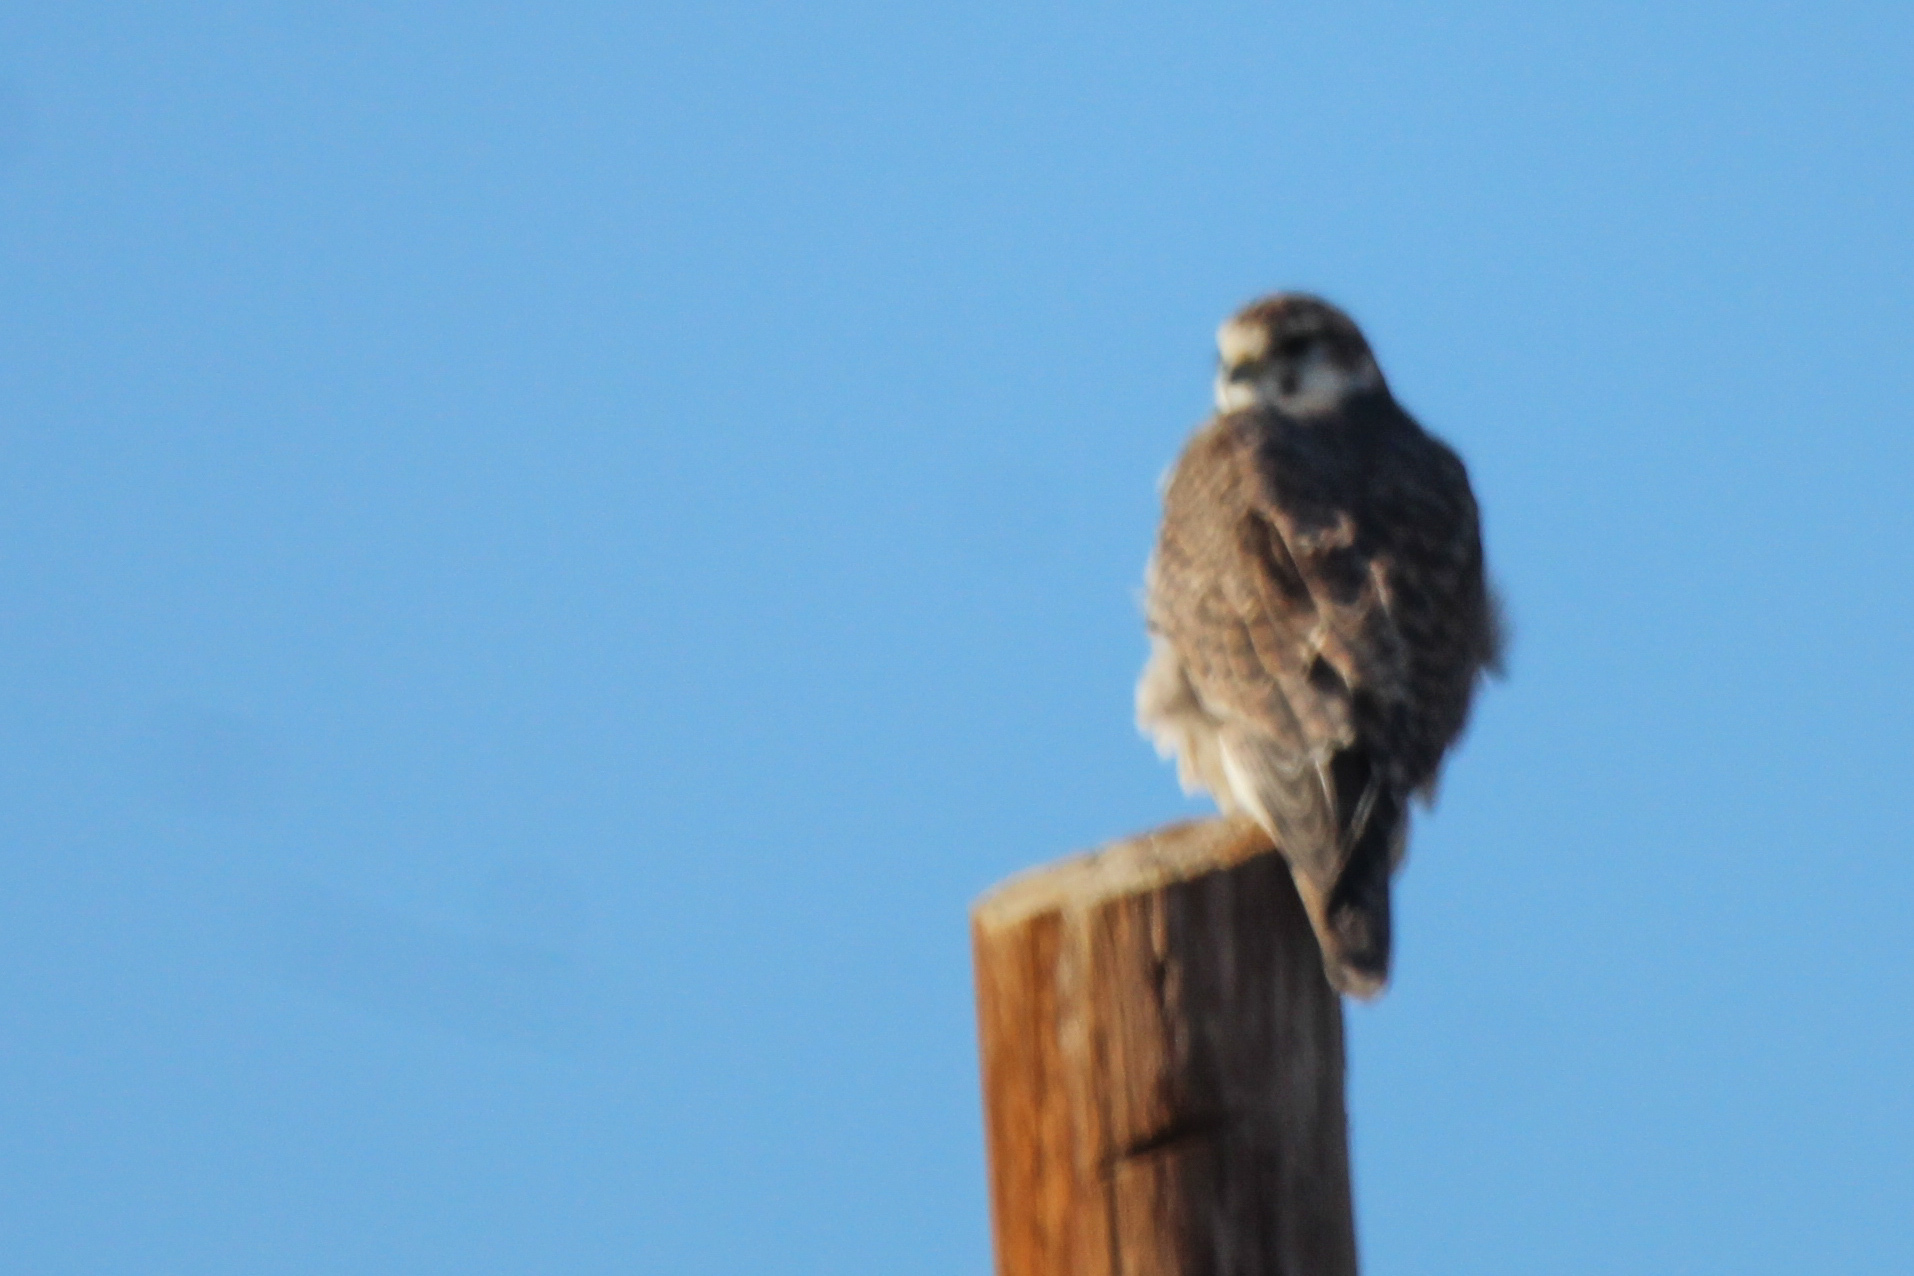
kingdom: Animalia
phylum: Chordata
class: Aves
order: Falconiformes
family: Falconidae
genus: Falco
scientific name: Falco cherrug
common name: Saker falcon
